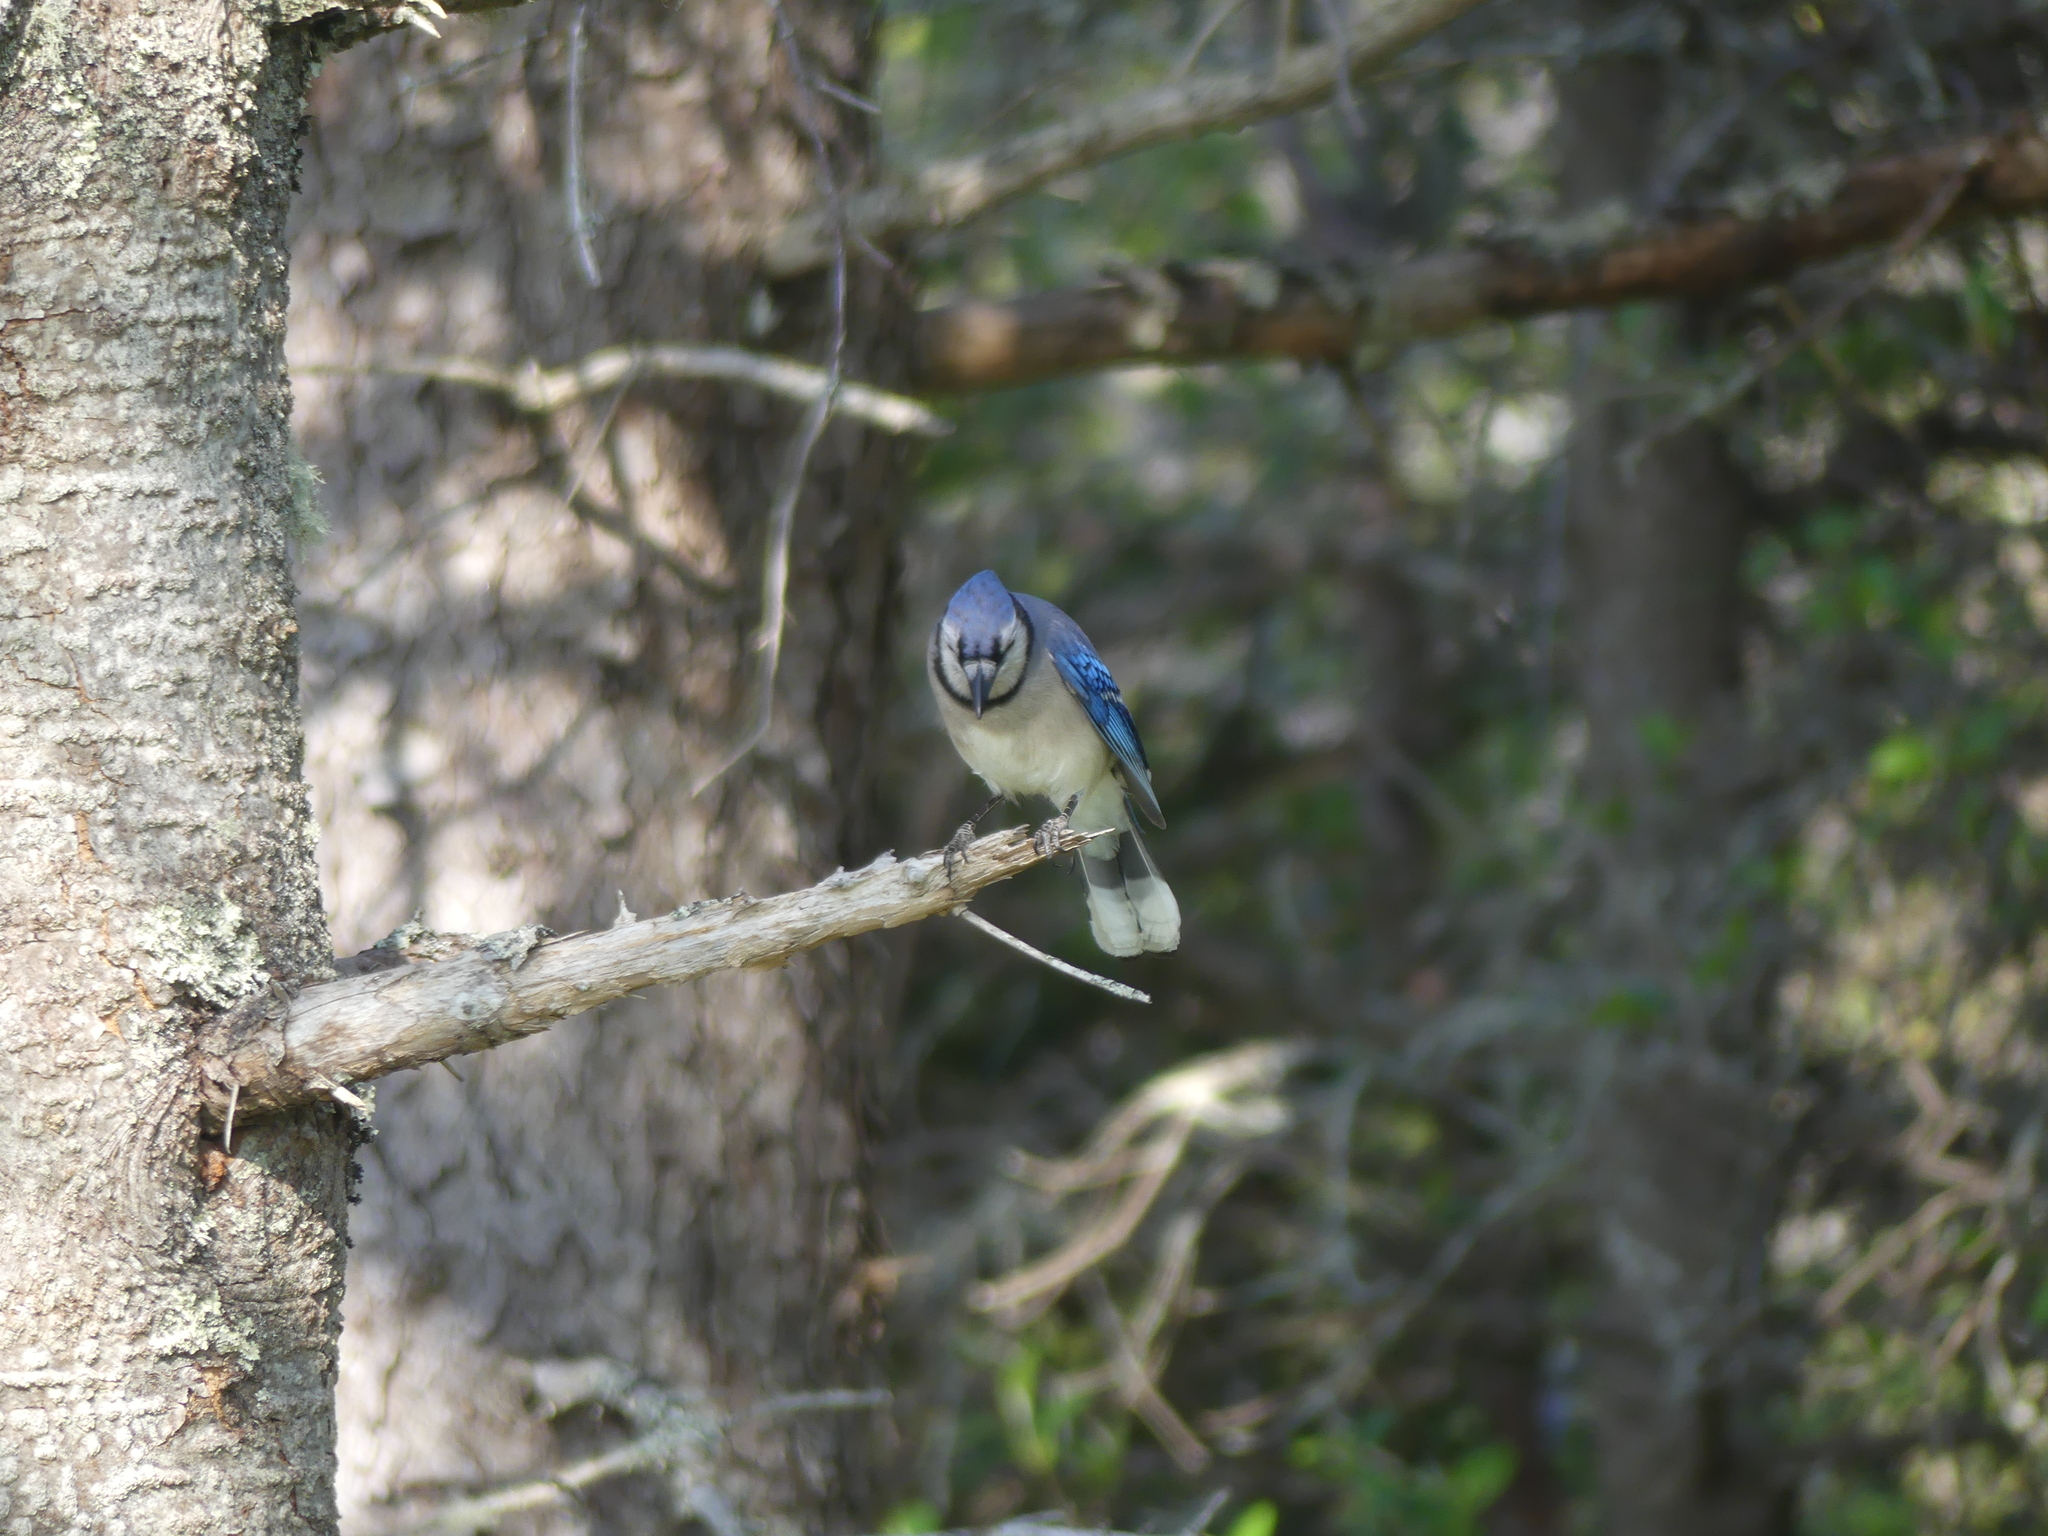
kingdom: Animalia
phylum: Chordata
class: Aves
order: Passeriformes
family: Corvidae
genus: Cyanocitta
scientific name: Cyanocitta cristata
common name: Blue jay
